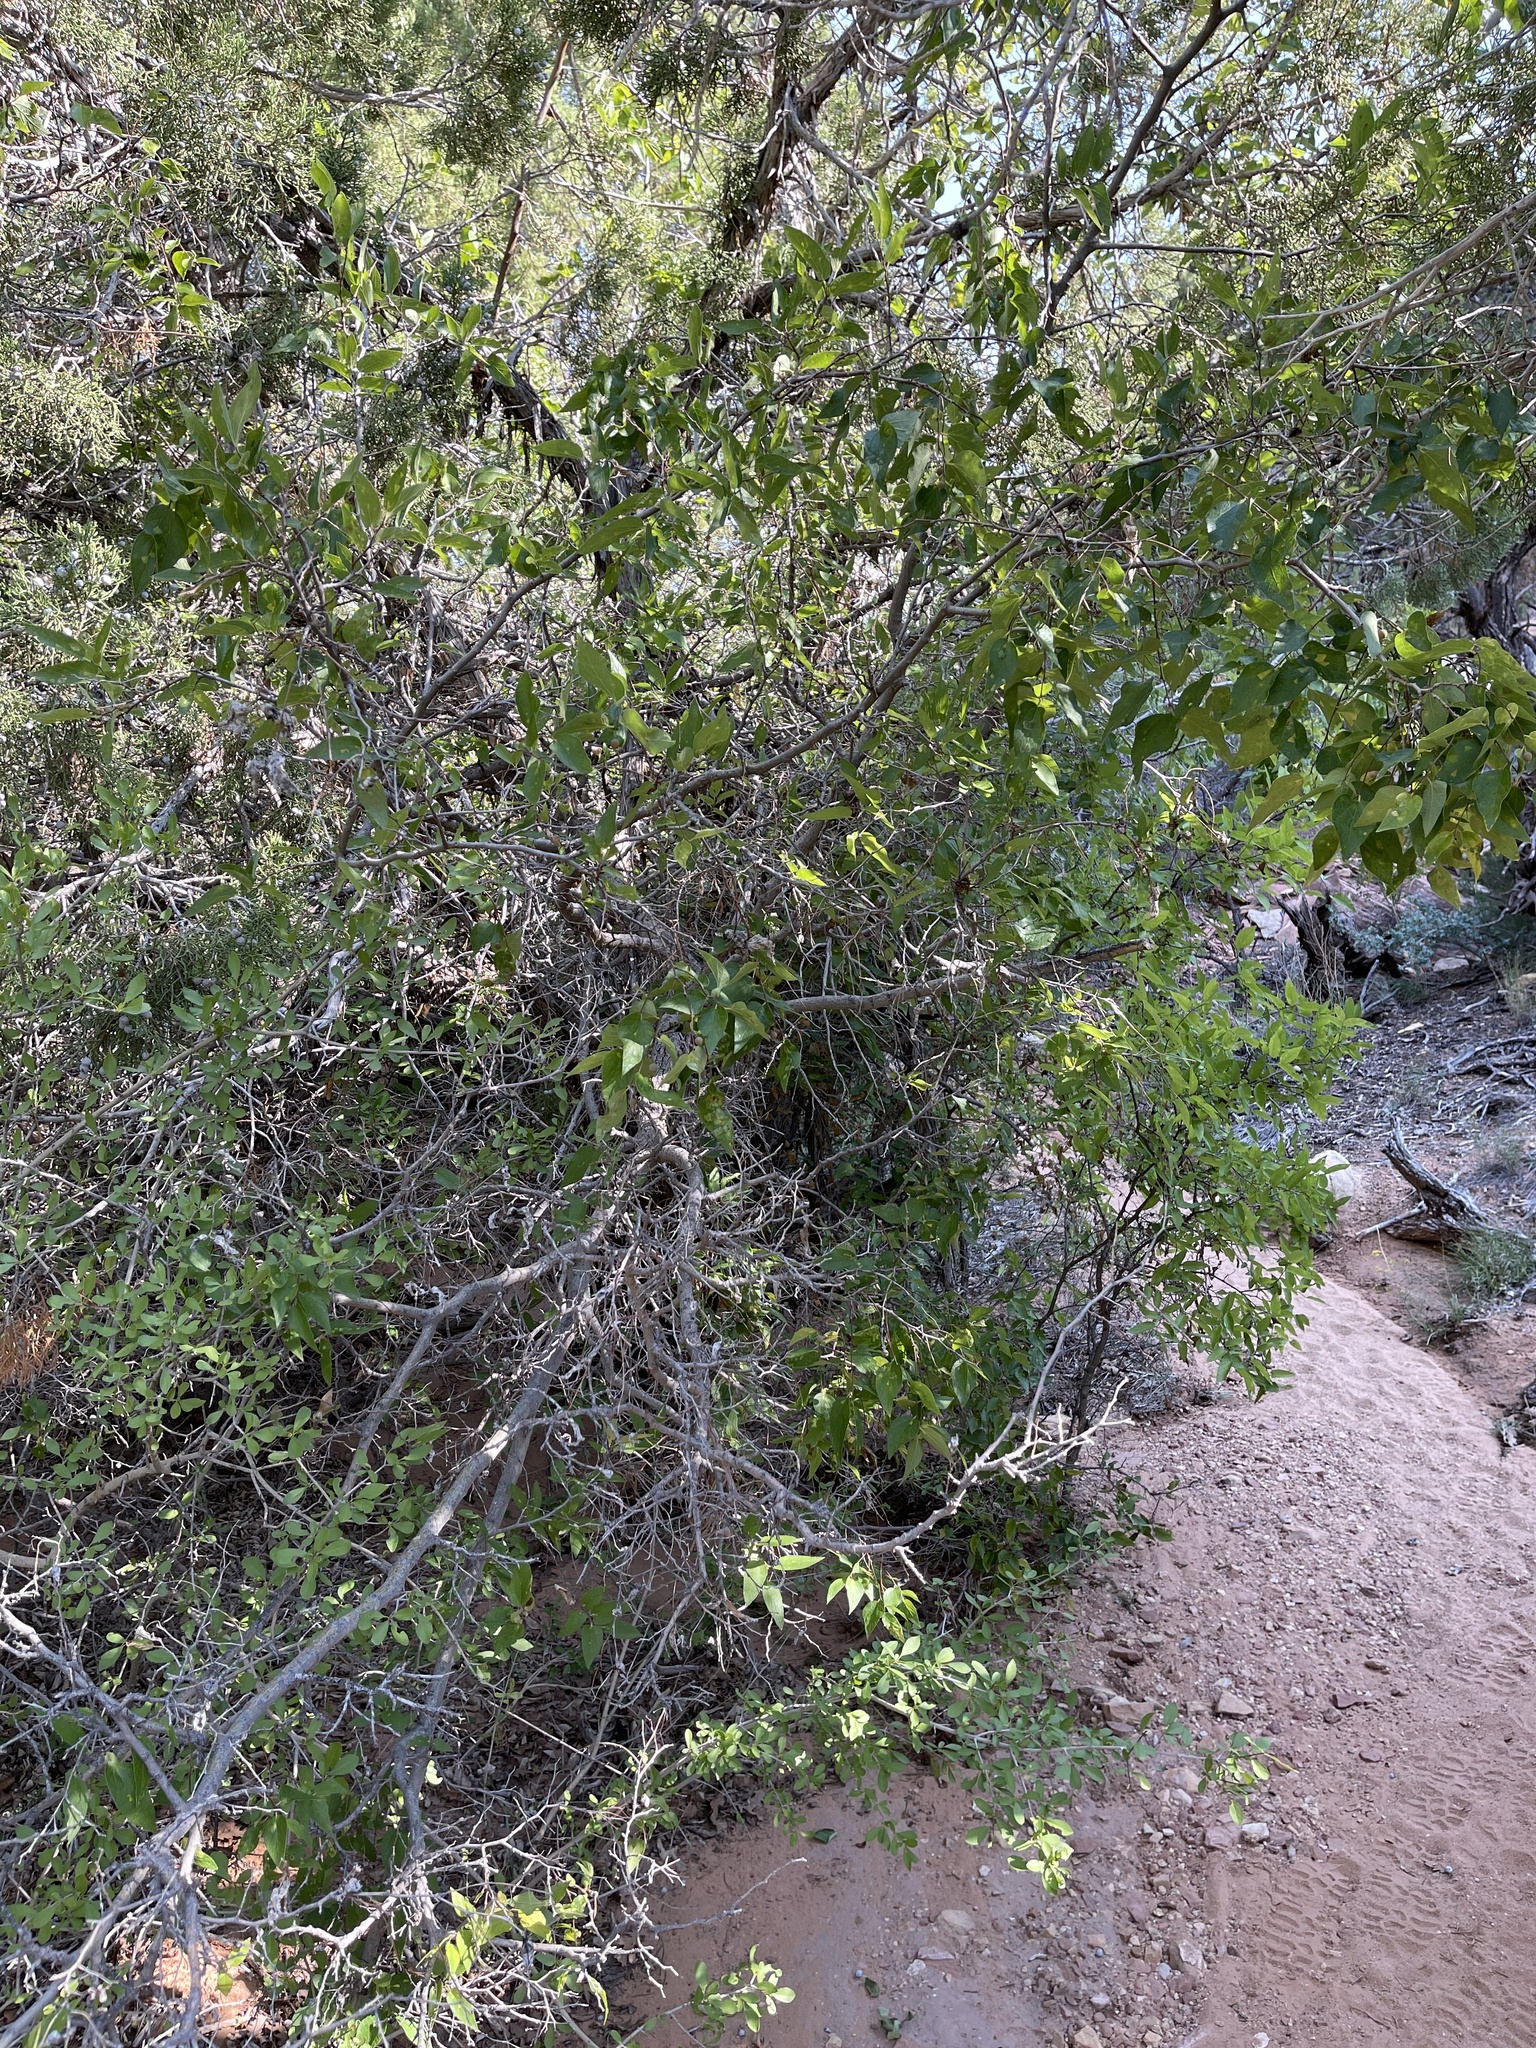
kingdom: Plantae
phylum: Tracheophyta
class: Magnoliopsida
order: Rosales
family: Cannabaceae
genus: Celtis
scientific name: Celtis reticulata
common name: Netleaf hackberry
